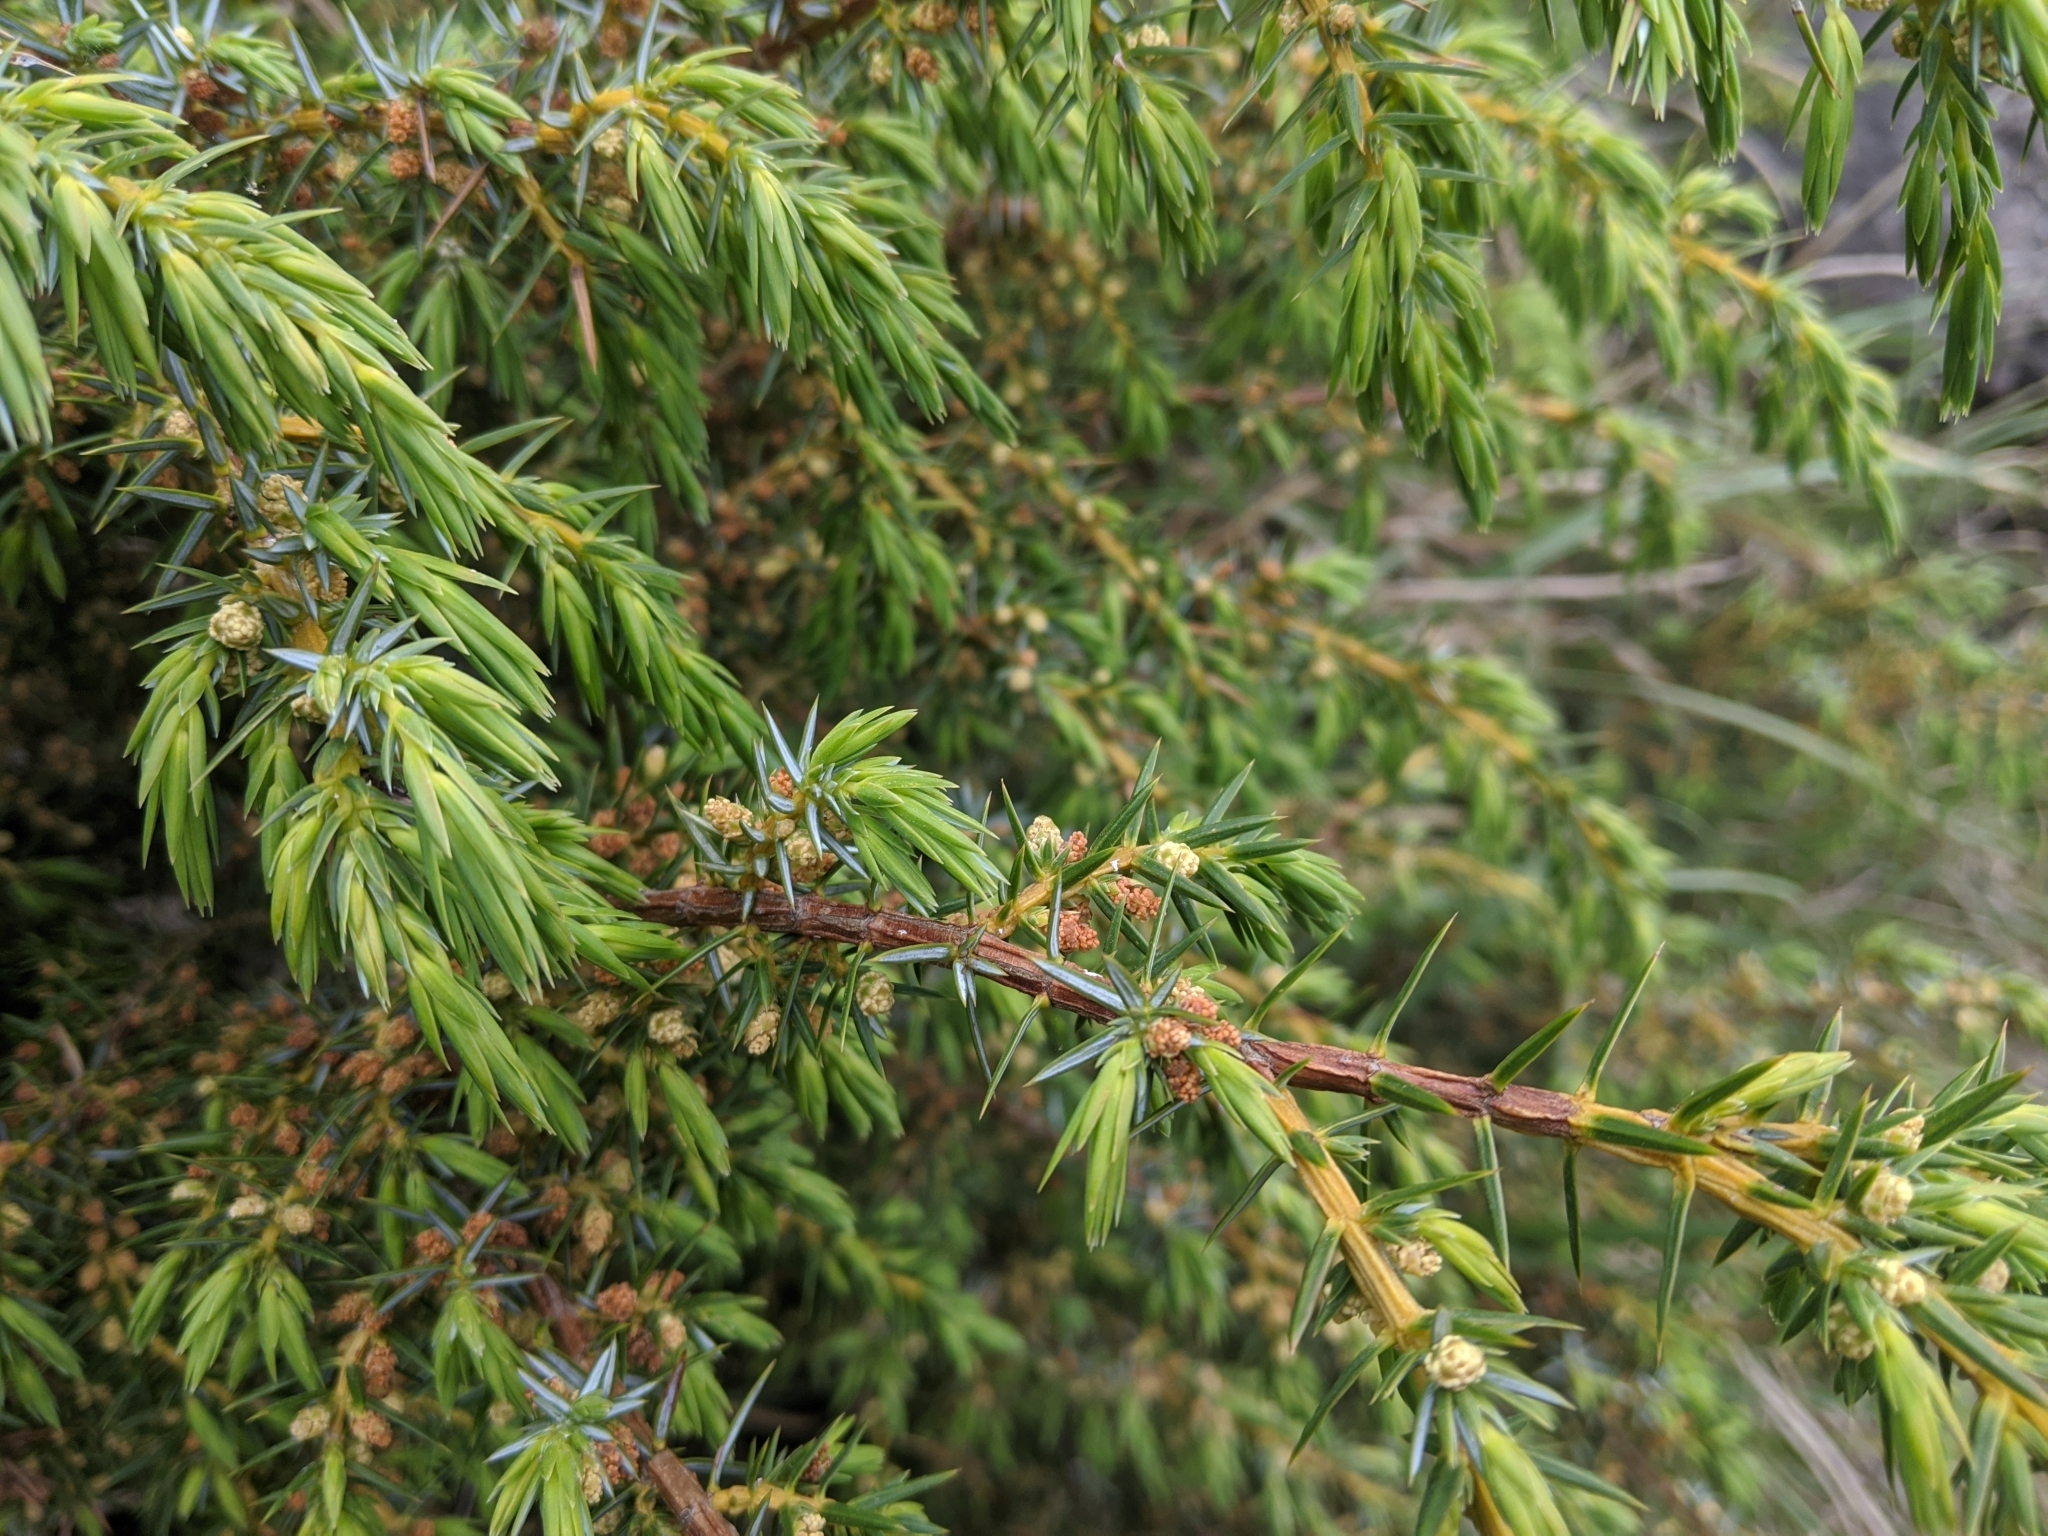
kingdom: Plantae
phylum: Tracheophyta
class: Pinopsida
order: Pinales
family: Cupressaceae
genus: Juniperus
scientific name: Juniperus formosana
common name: Formosan juniper
